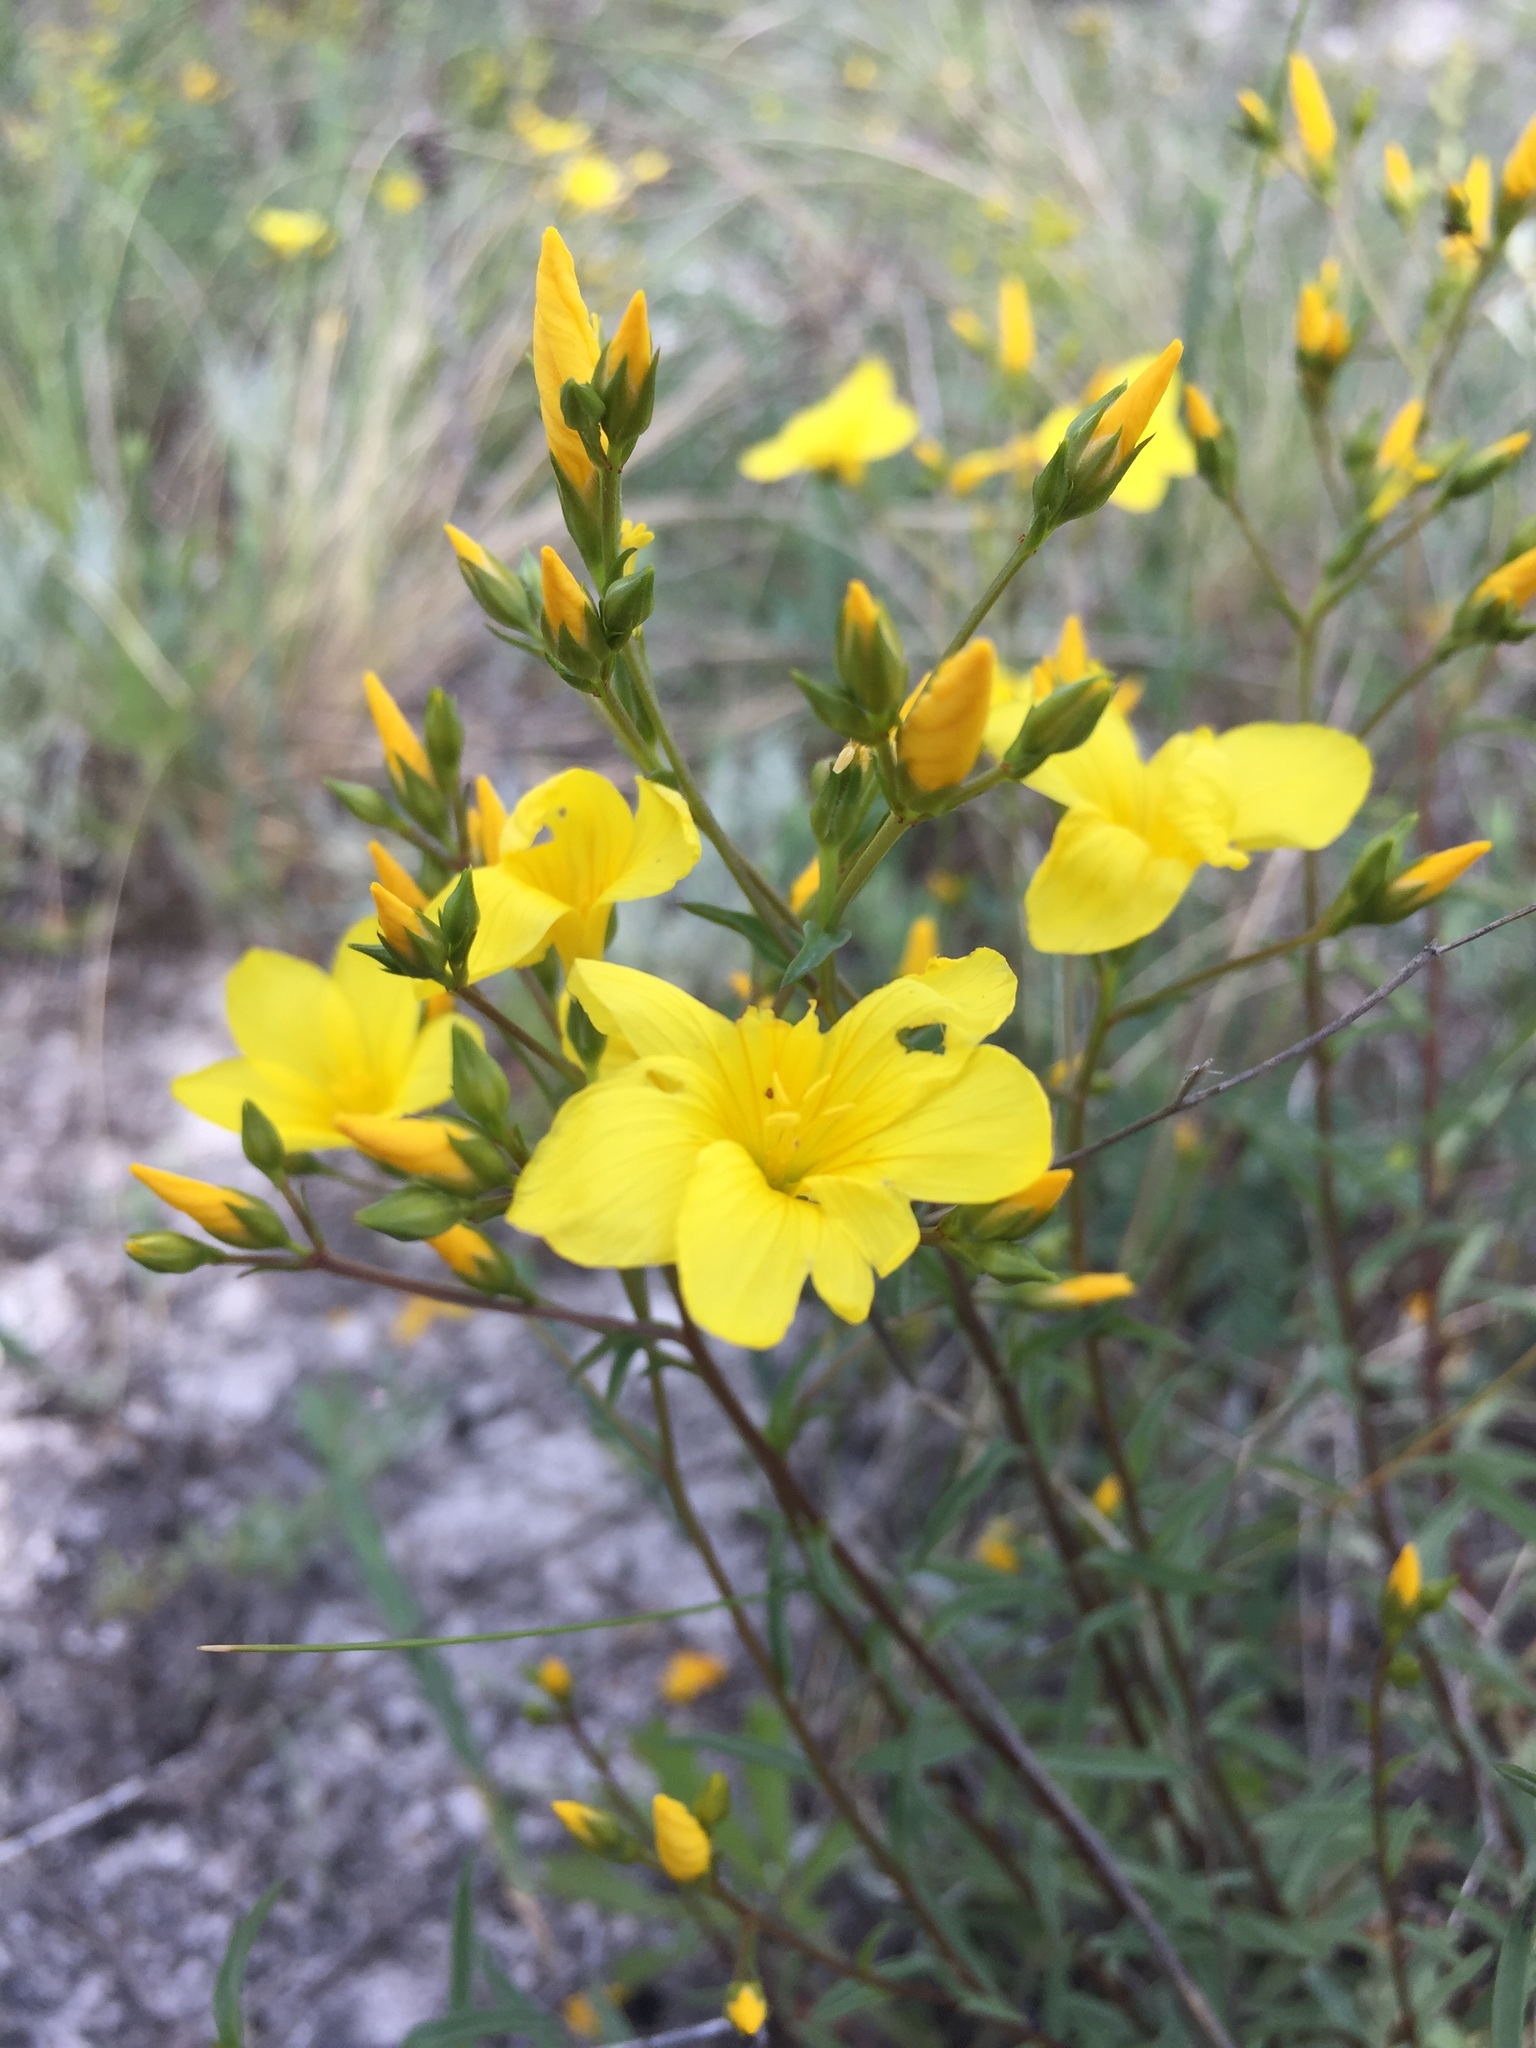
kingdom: Plantae
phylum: Tracheophyta
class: Magnoliopsida
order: Malpighiales
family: Linaceae
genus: Linum
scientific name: Linum ucranicum
